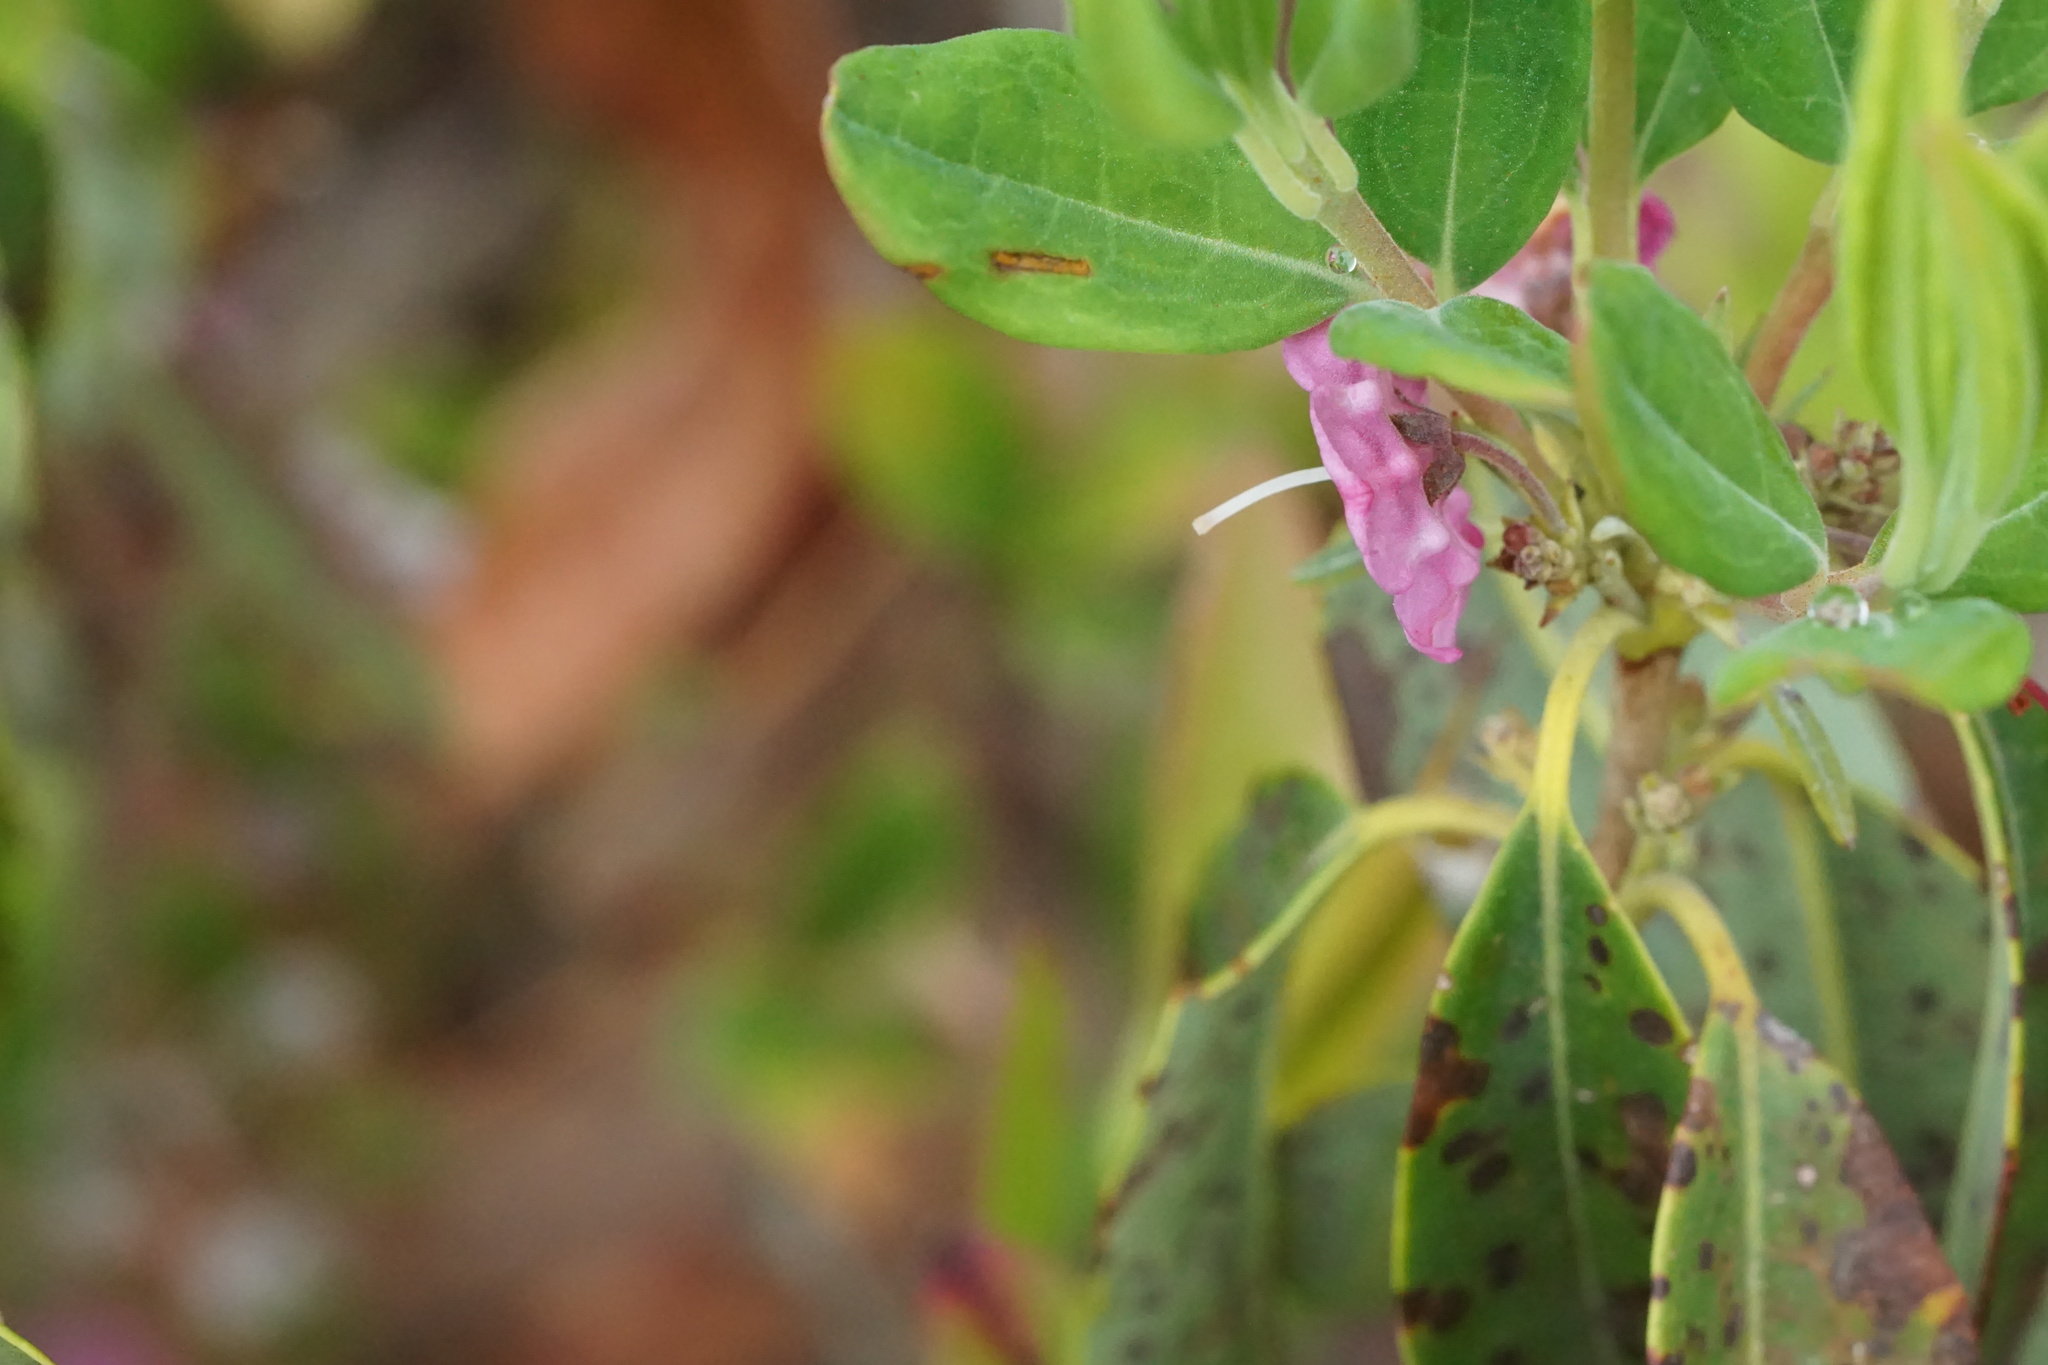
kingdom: Plantae
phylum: Tracheophyta
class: Magnoliopsida
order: Ericales
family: Ericaceae
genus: Kalmia
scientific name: Kalmia angustifolia
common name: Sheep-laurel
